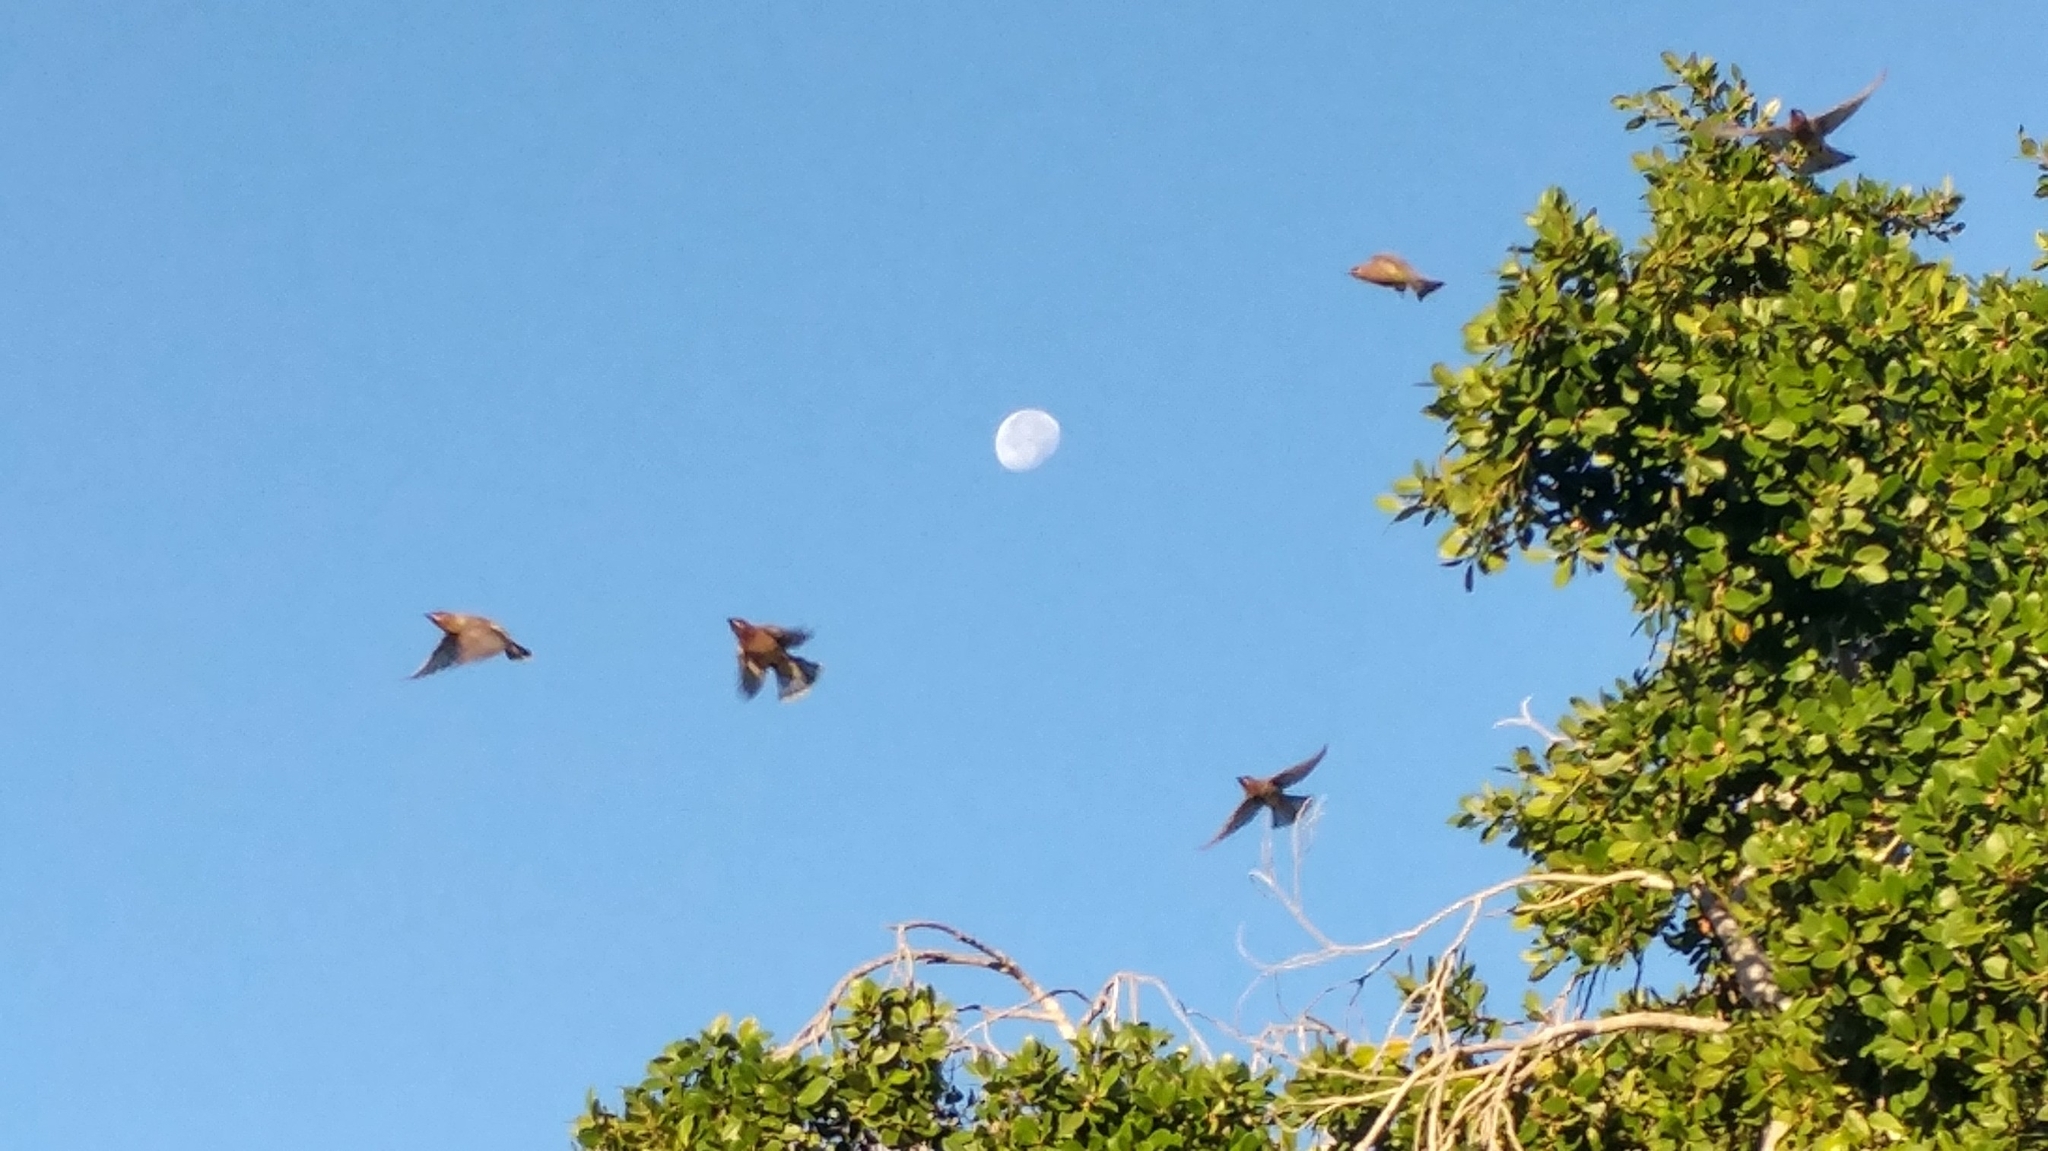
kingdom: Animalia
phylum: Chordata
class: Aves
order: Passeriformes
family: Bombycillidae
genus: Bombycilla
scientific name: Bombycilla cedrorum
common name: Cedar waxwing
